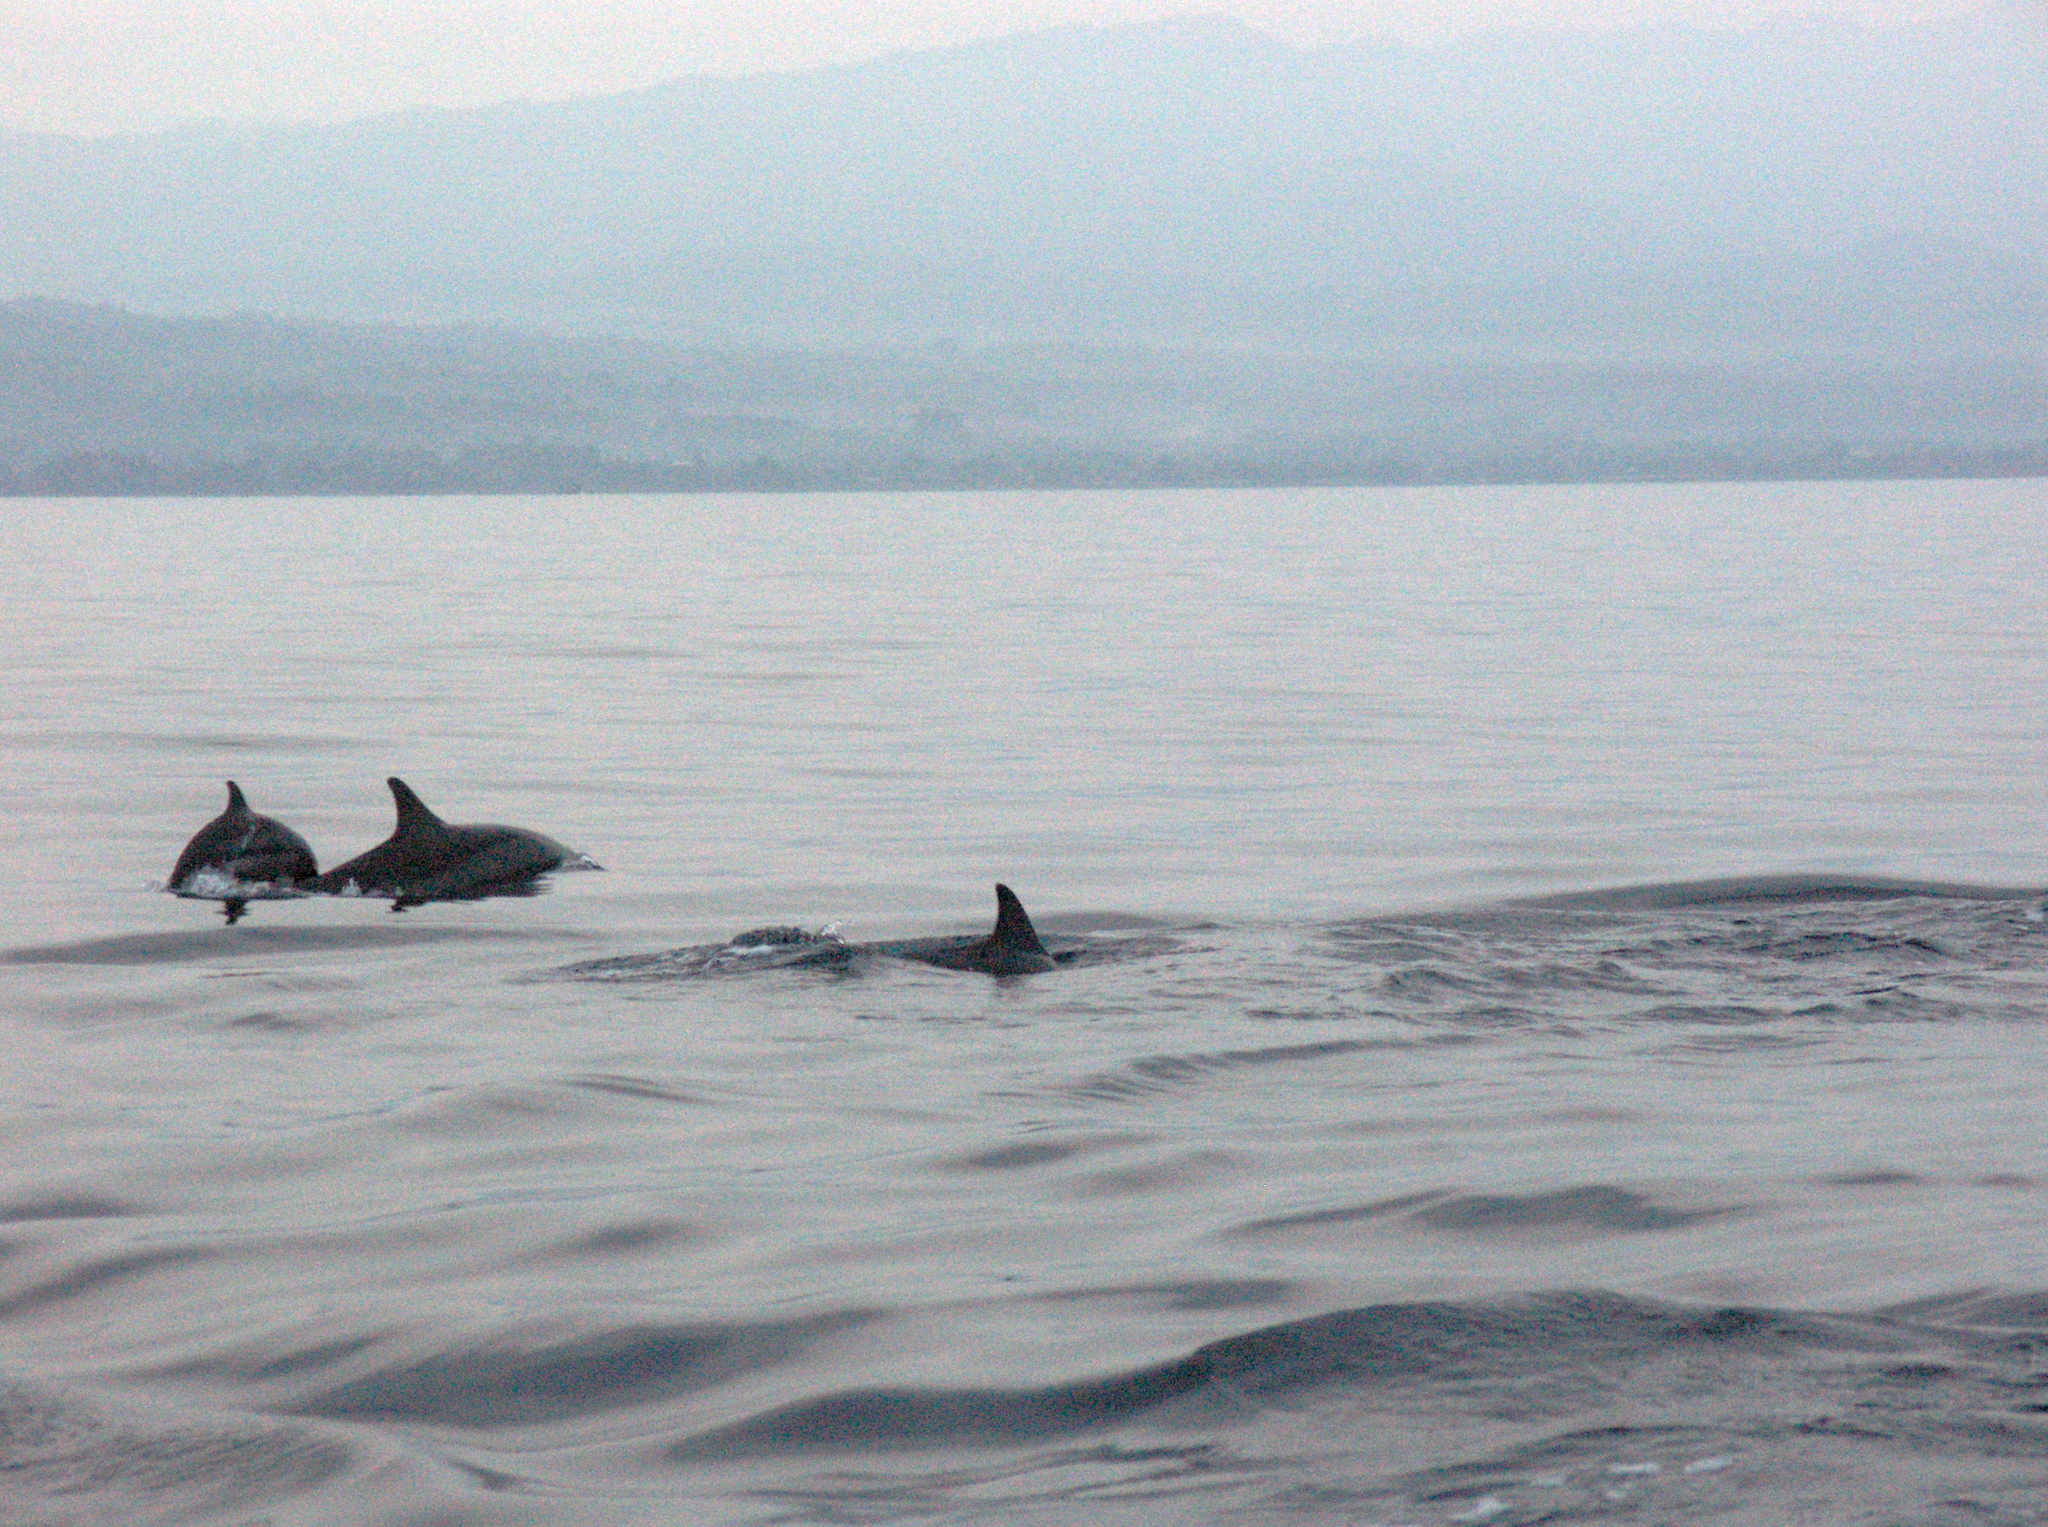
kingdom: Animalia
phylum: Chordata
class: Mammalia
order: Cetacea
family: Delphinidae
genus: Stenella
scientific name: Stenella longirostris
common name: Spinner dolphin
